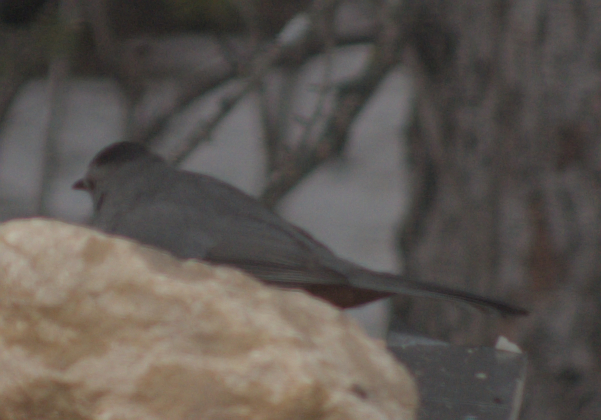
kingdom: Animalia
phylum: Chordata
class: Aves
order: Passeriformes
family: Mimidae
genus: Dumetella
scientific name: Dumetella carolinensis
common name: Gray catbird
